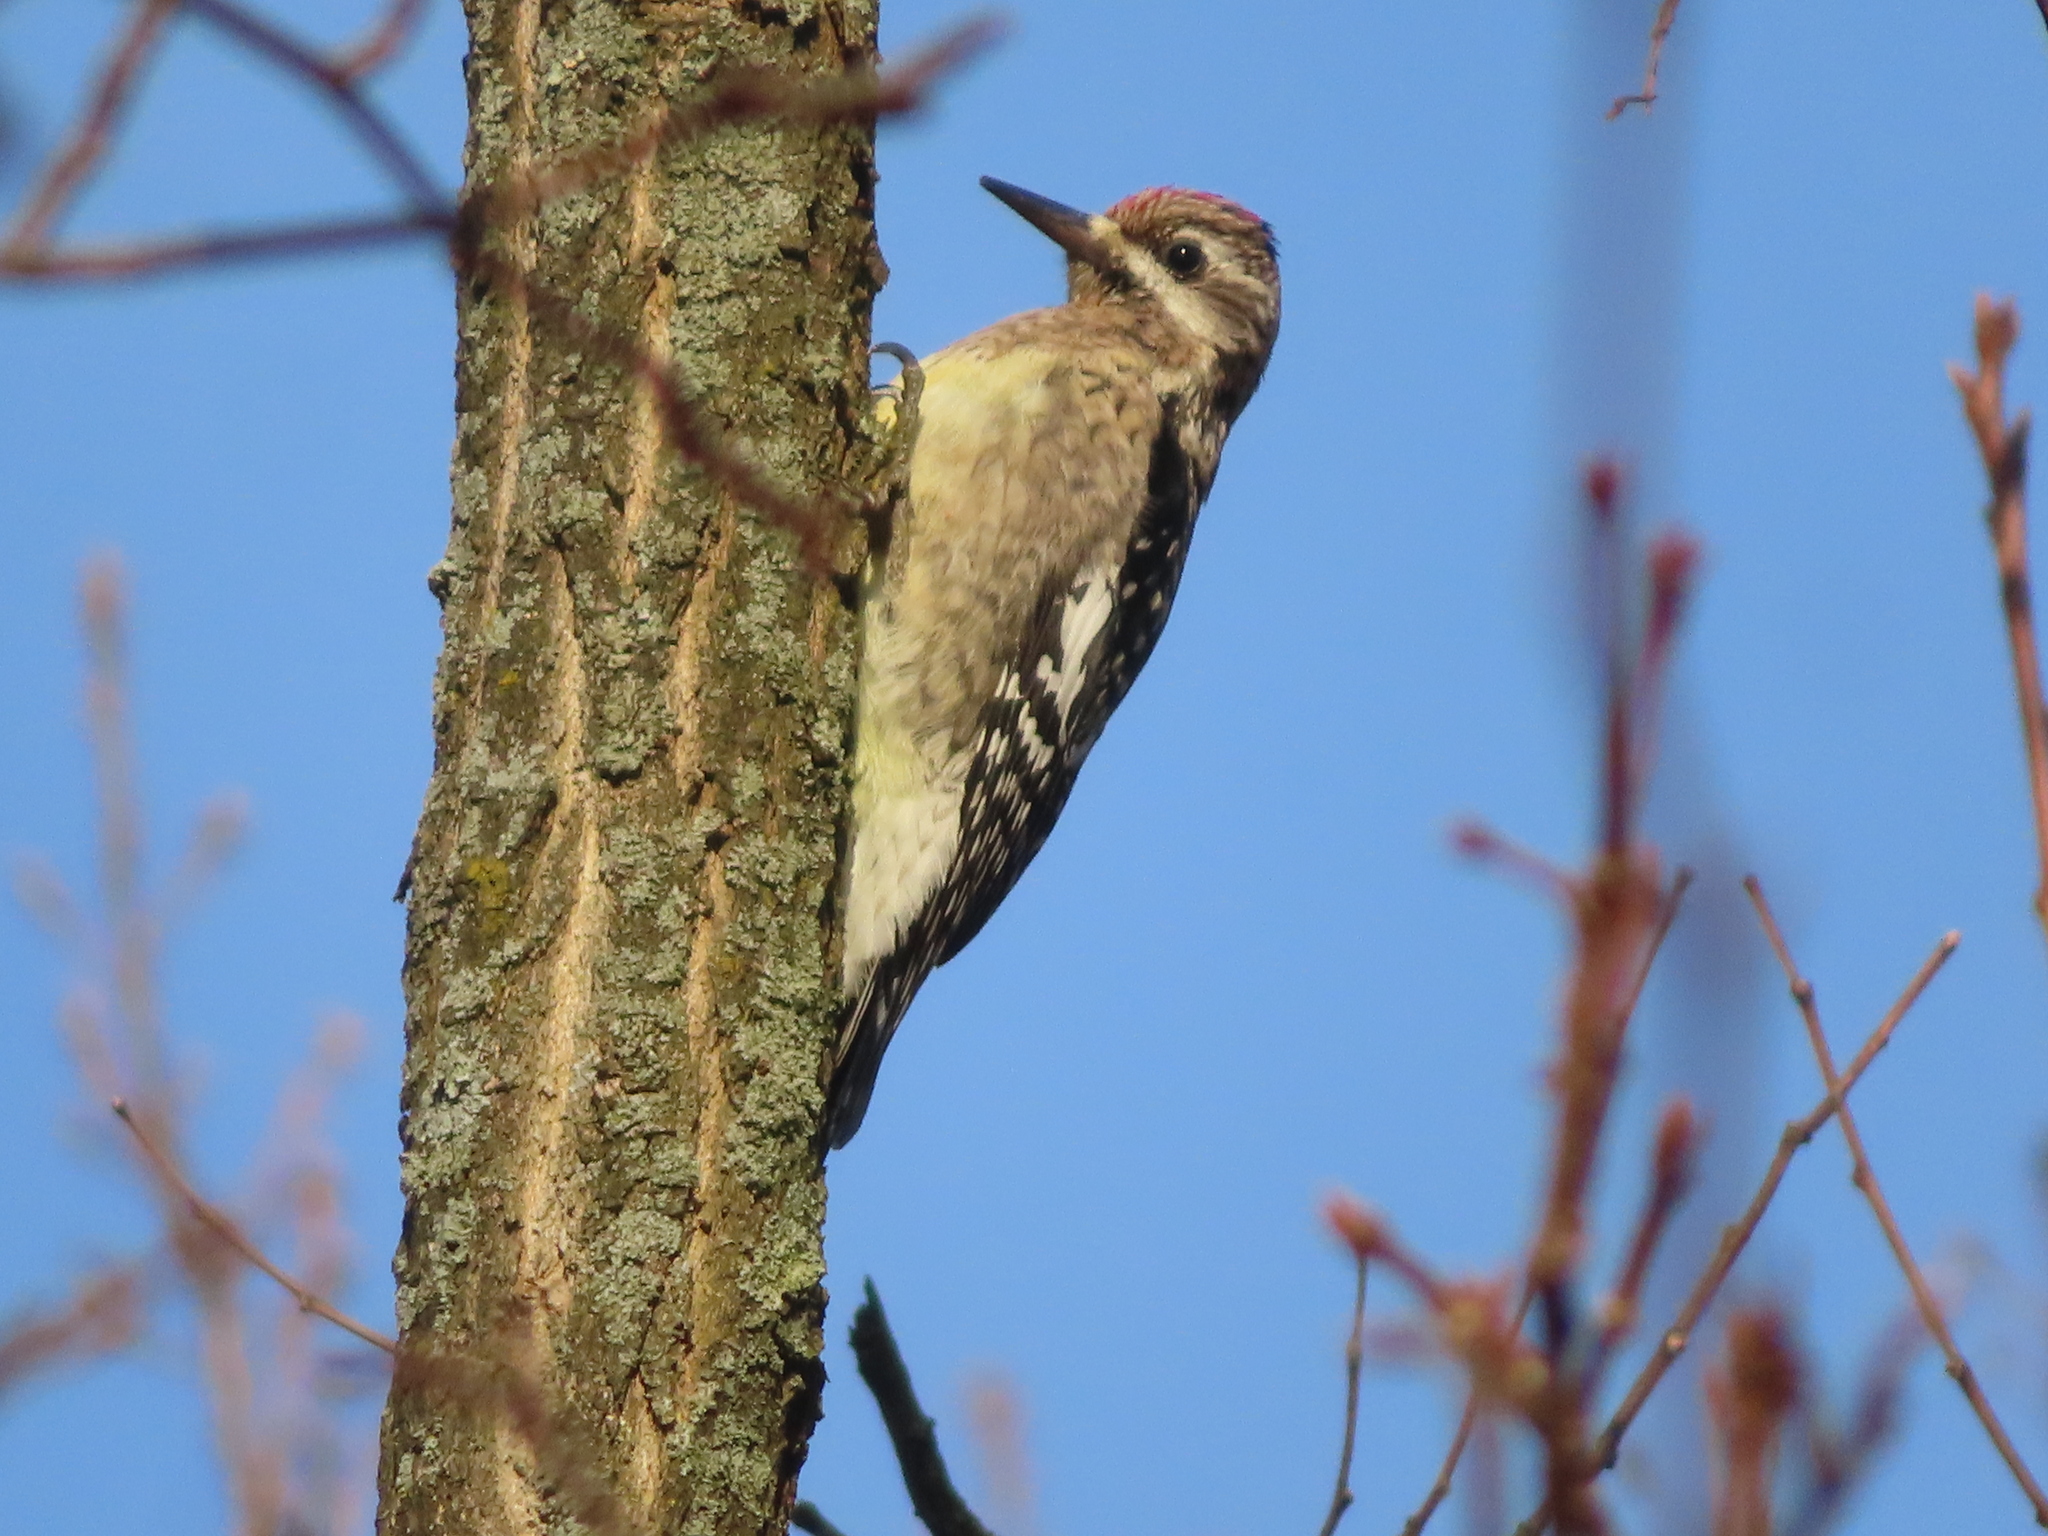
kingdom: Animalia
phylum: Chordata
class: Aves
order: Piciformes
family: Picidae
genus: Sphyrapicus
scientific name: Sphyrapicus varius
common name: Yellow-bellied sapsucker
